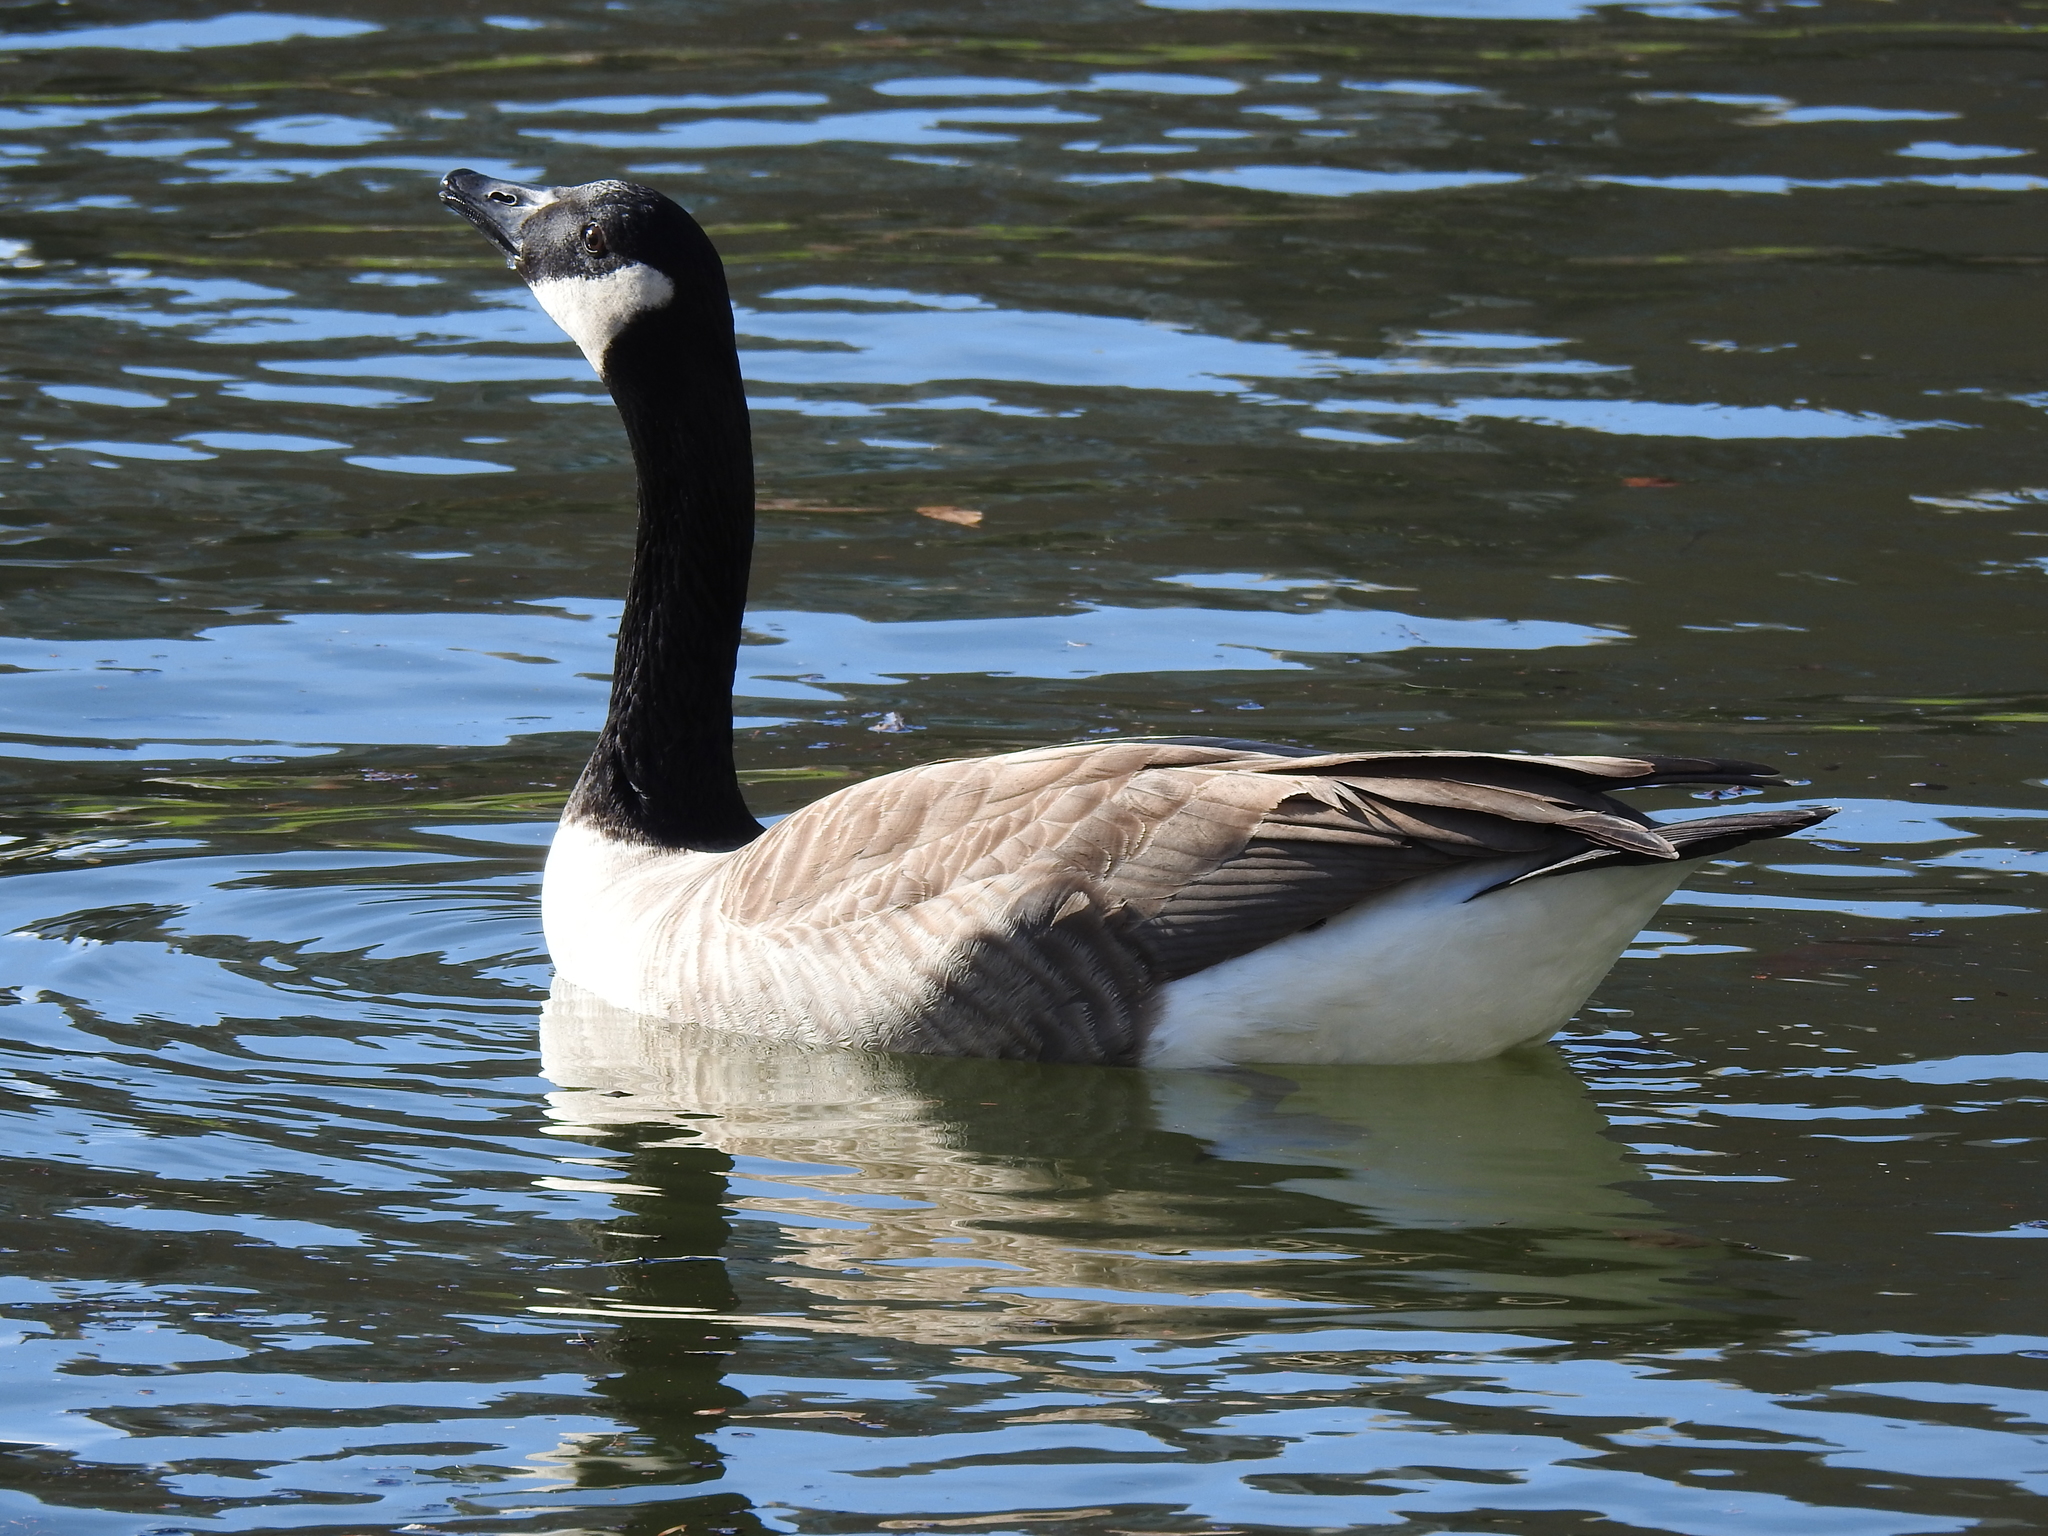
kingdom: Animalia
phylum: Chordata
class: Aves
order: Anseriformes
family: Anatidae
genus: Branta
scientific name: Branta canadensis
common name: Canada goose
